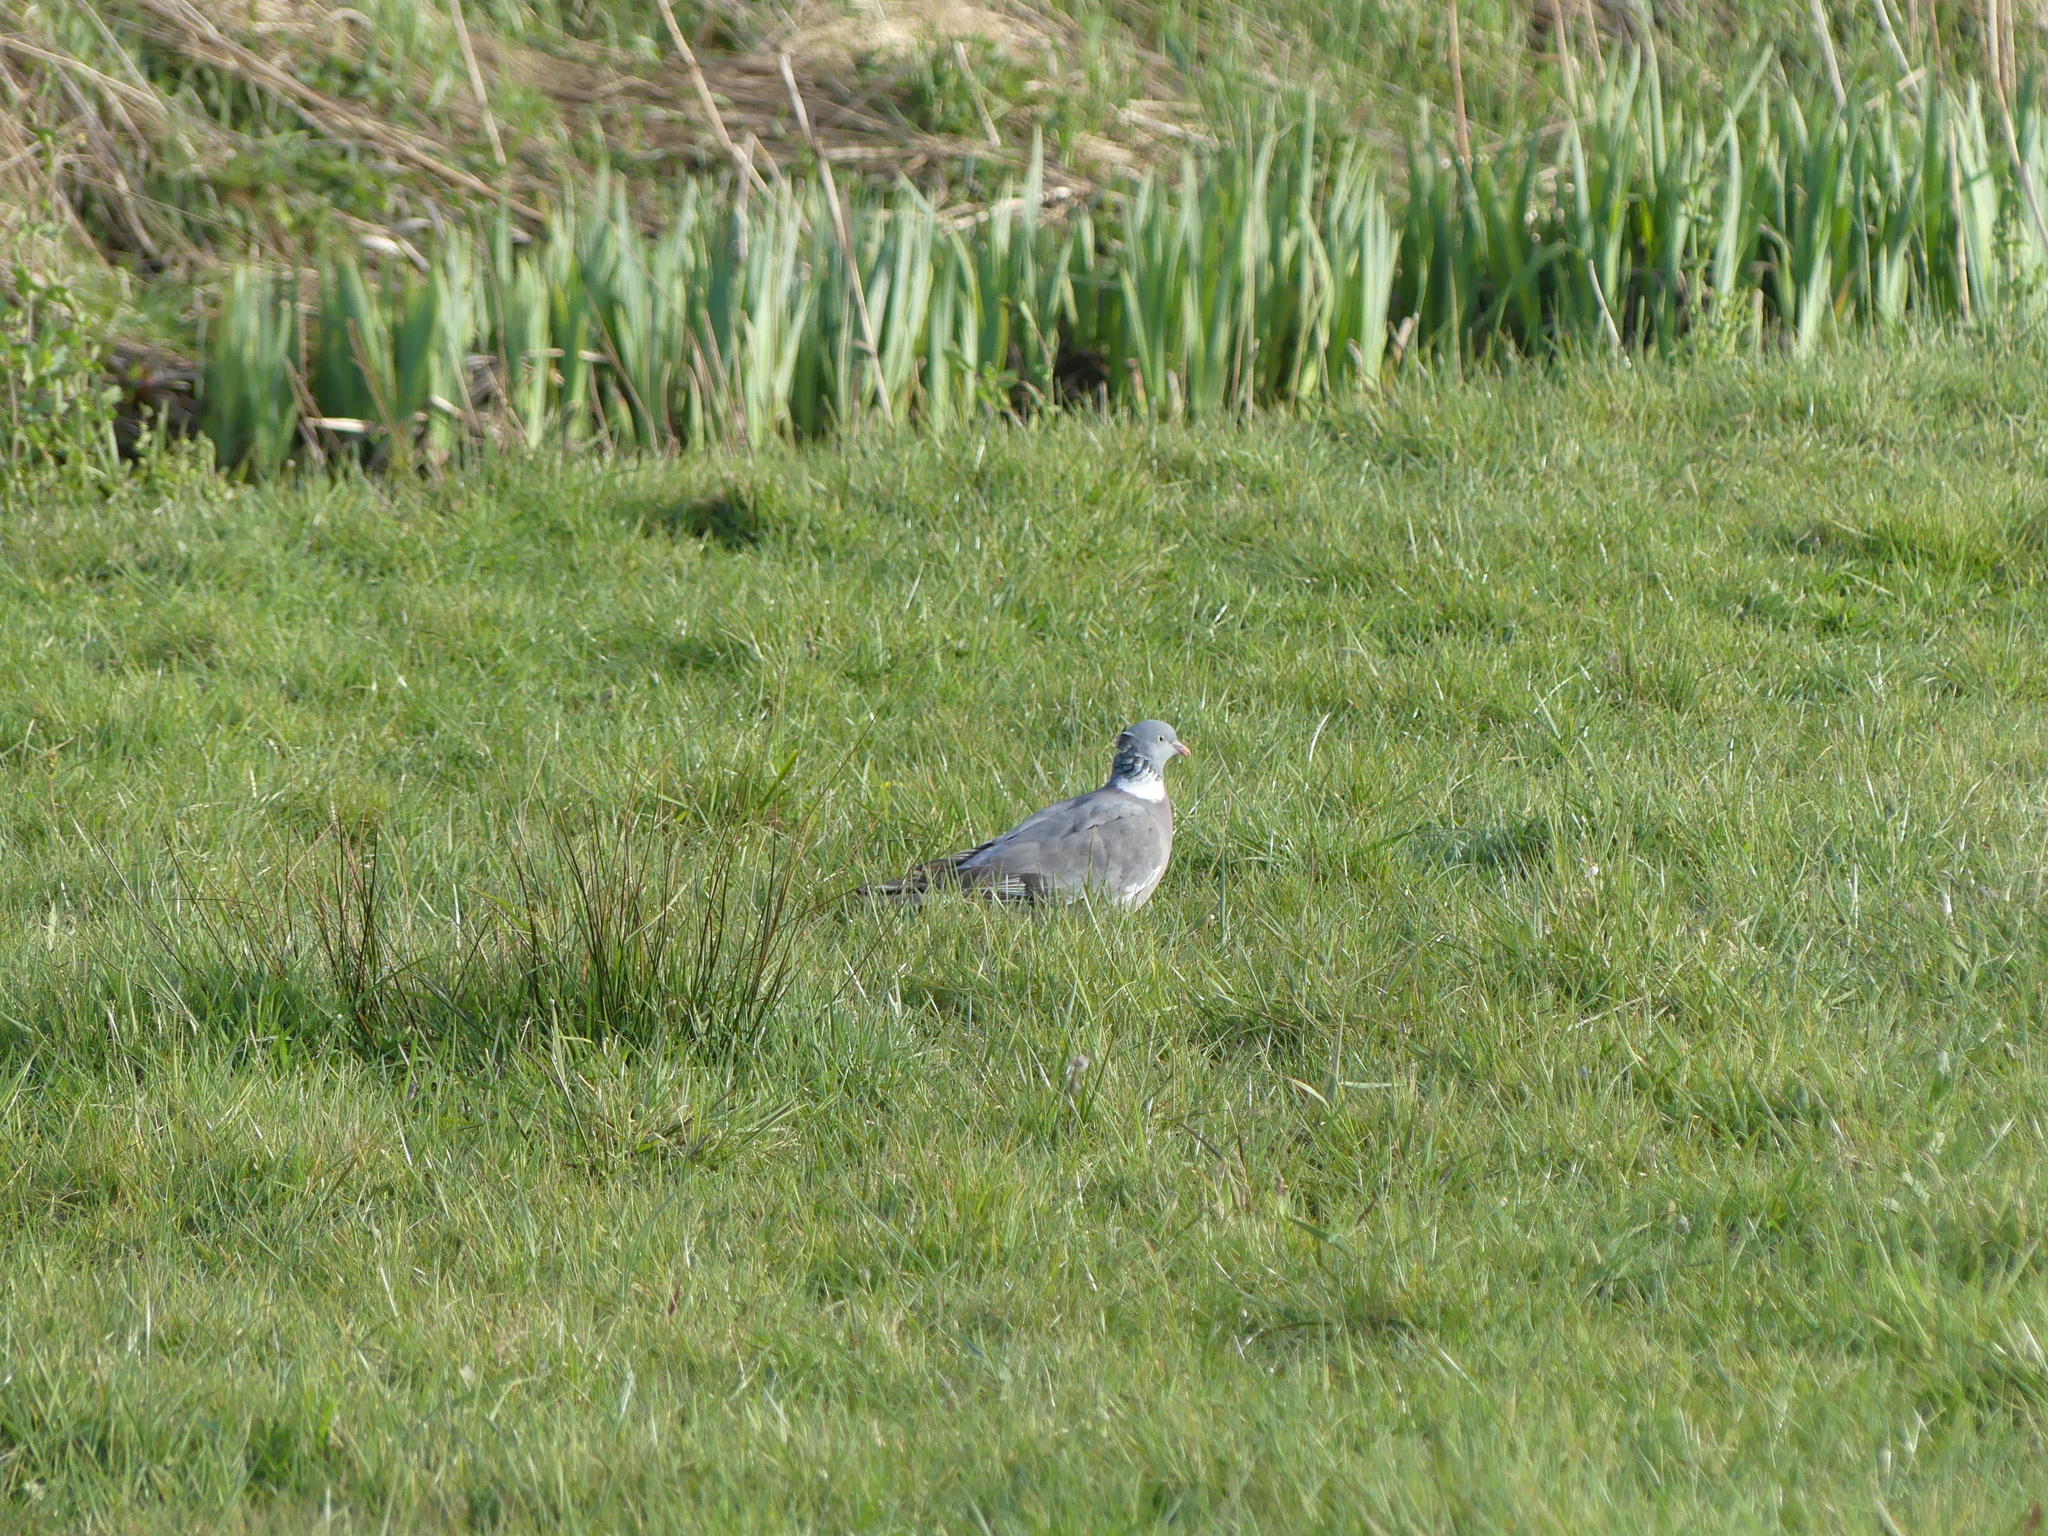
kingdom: Animalia
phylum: Chordata
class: Aves
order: Columbiformes
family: Columbidae
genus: Columba
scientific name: Columba palumbus
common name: Common wood pigeon
